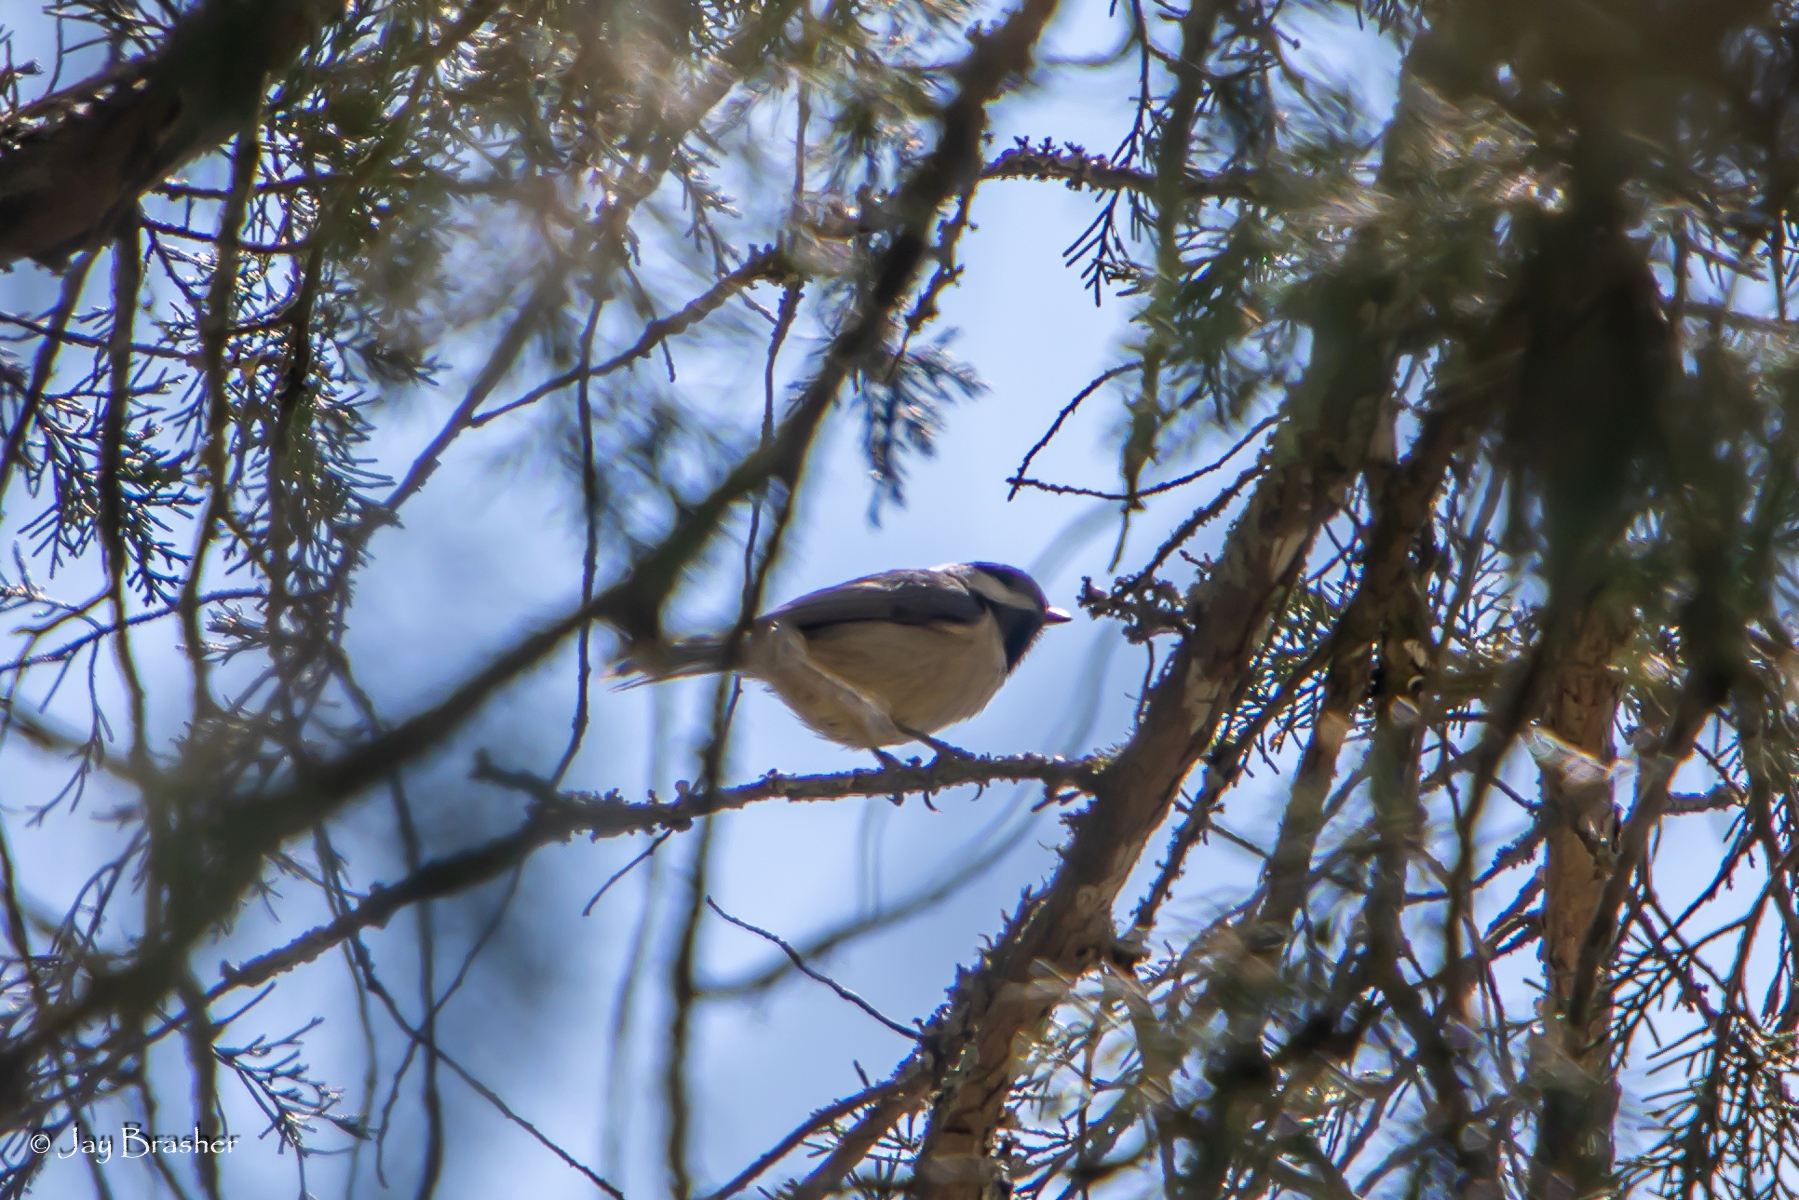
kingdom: Animalia
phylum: Chordata
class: Aves
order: Passeriformes
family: Paridae
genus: Poecile
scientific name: Poecile carolinensis
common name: Carolina chickadee
